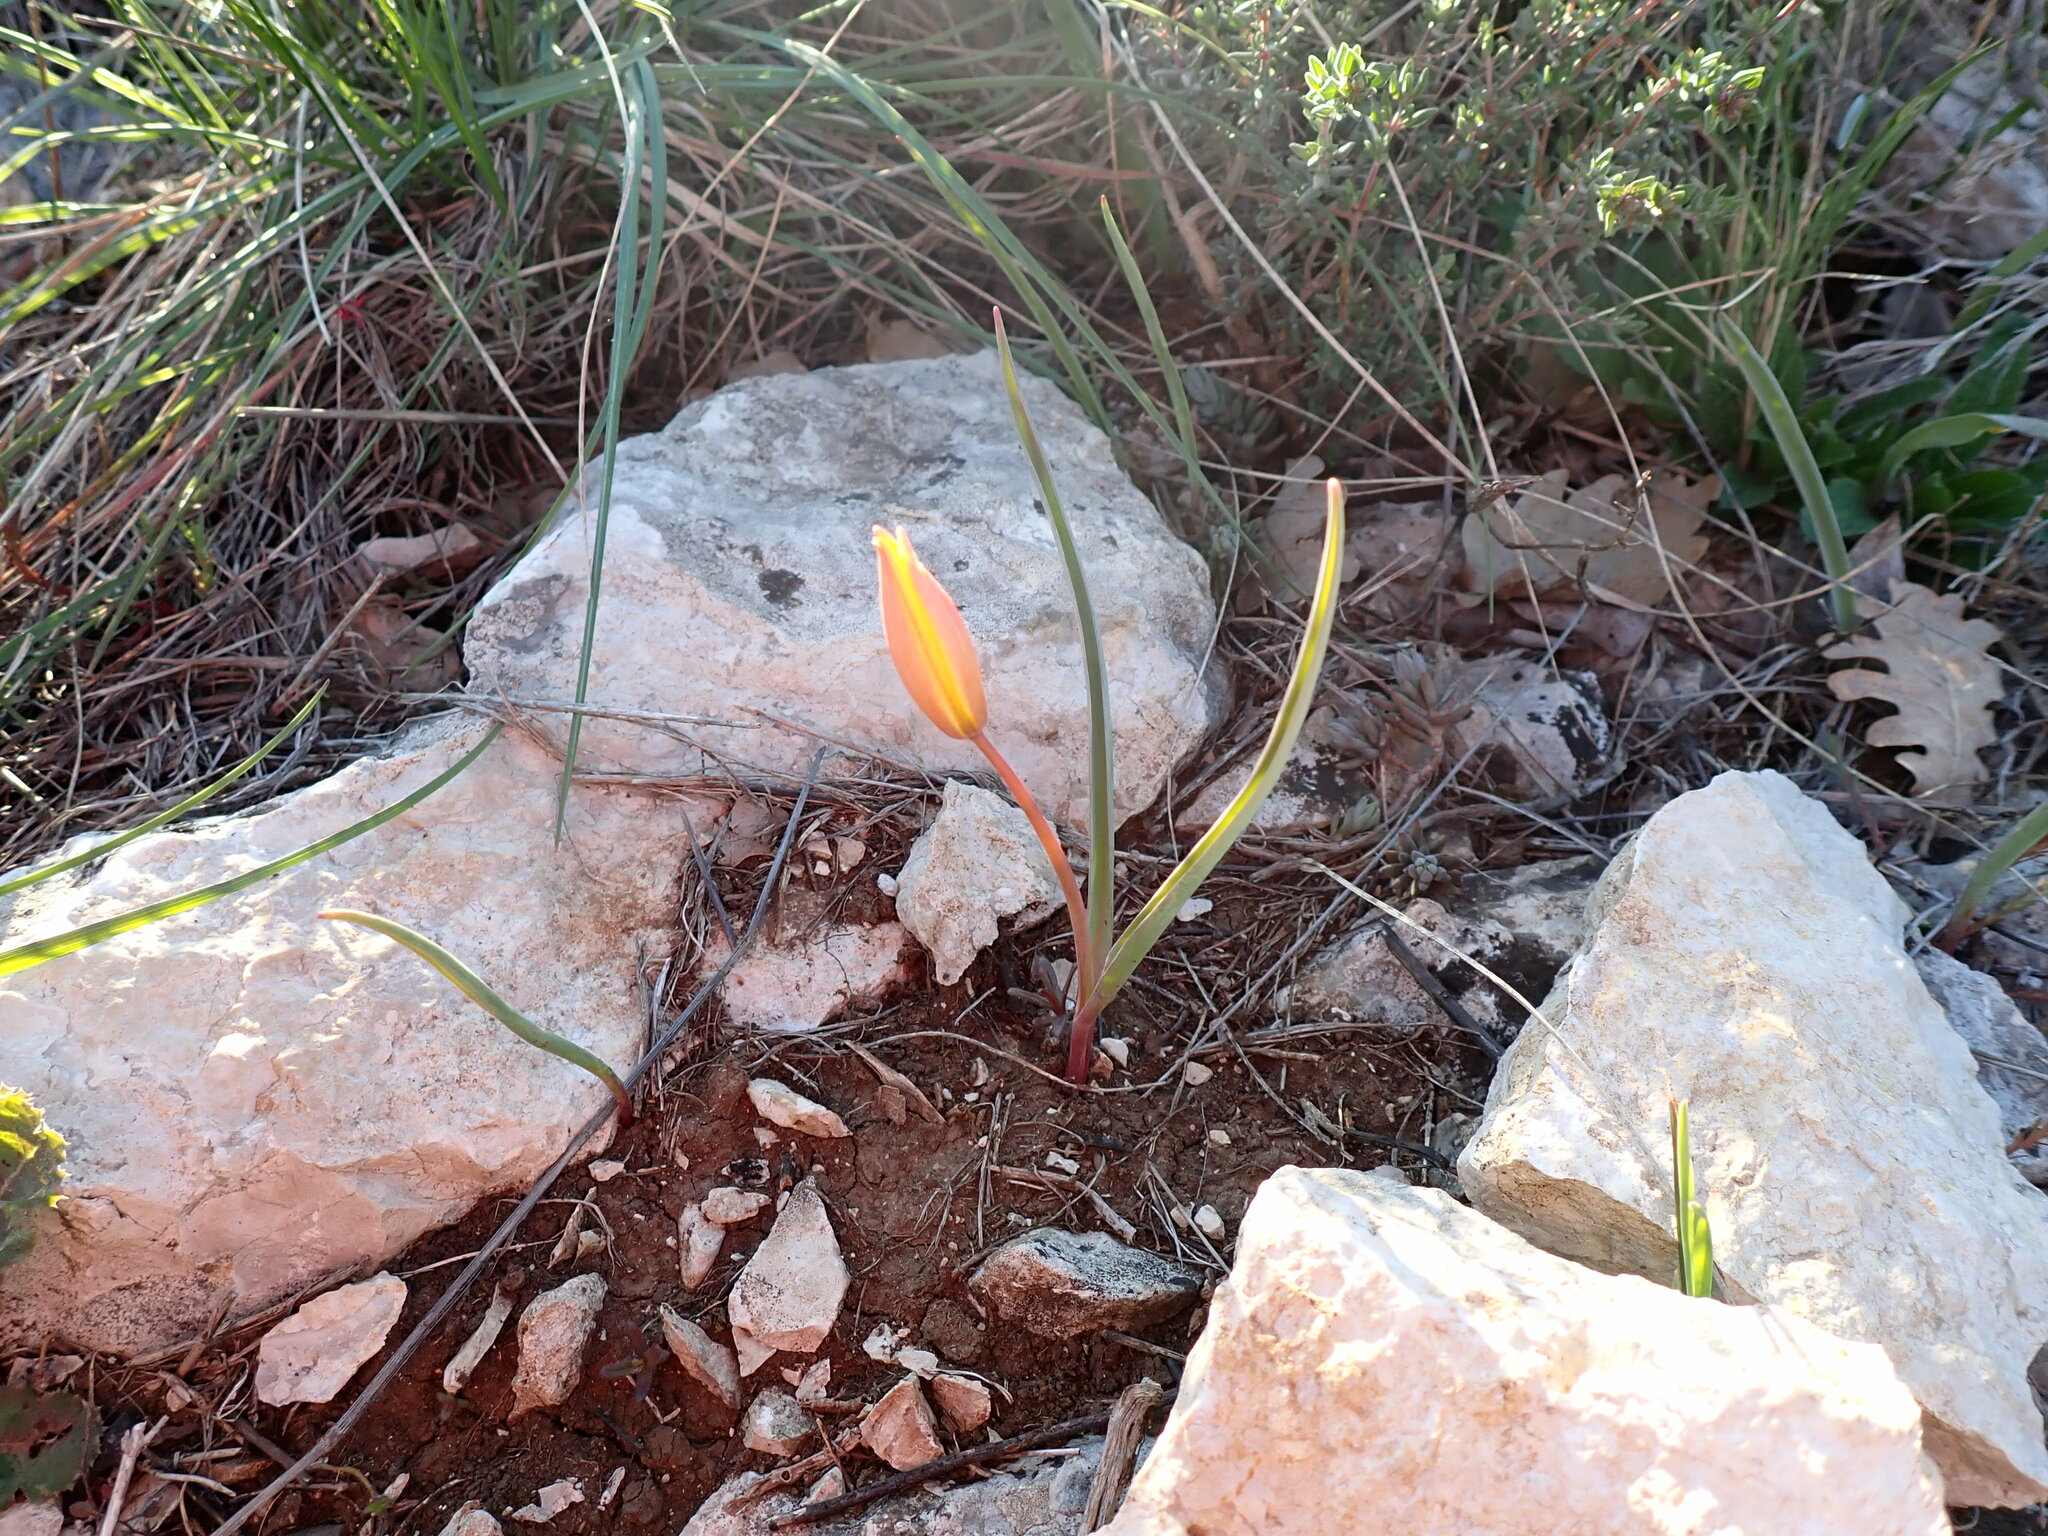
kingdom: Plantae
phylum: Tracheophyta
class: Liliopsida
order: Liliales
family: Liliaceae
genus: Tulipa
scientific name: Tulipa sylvestris
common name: Wild tulip
